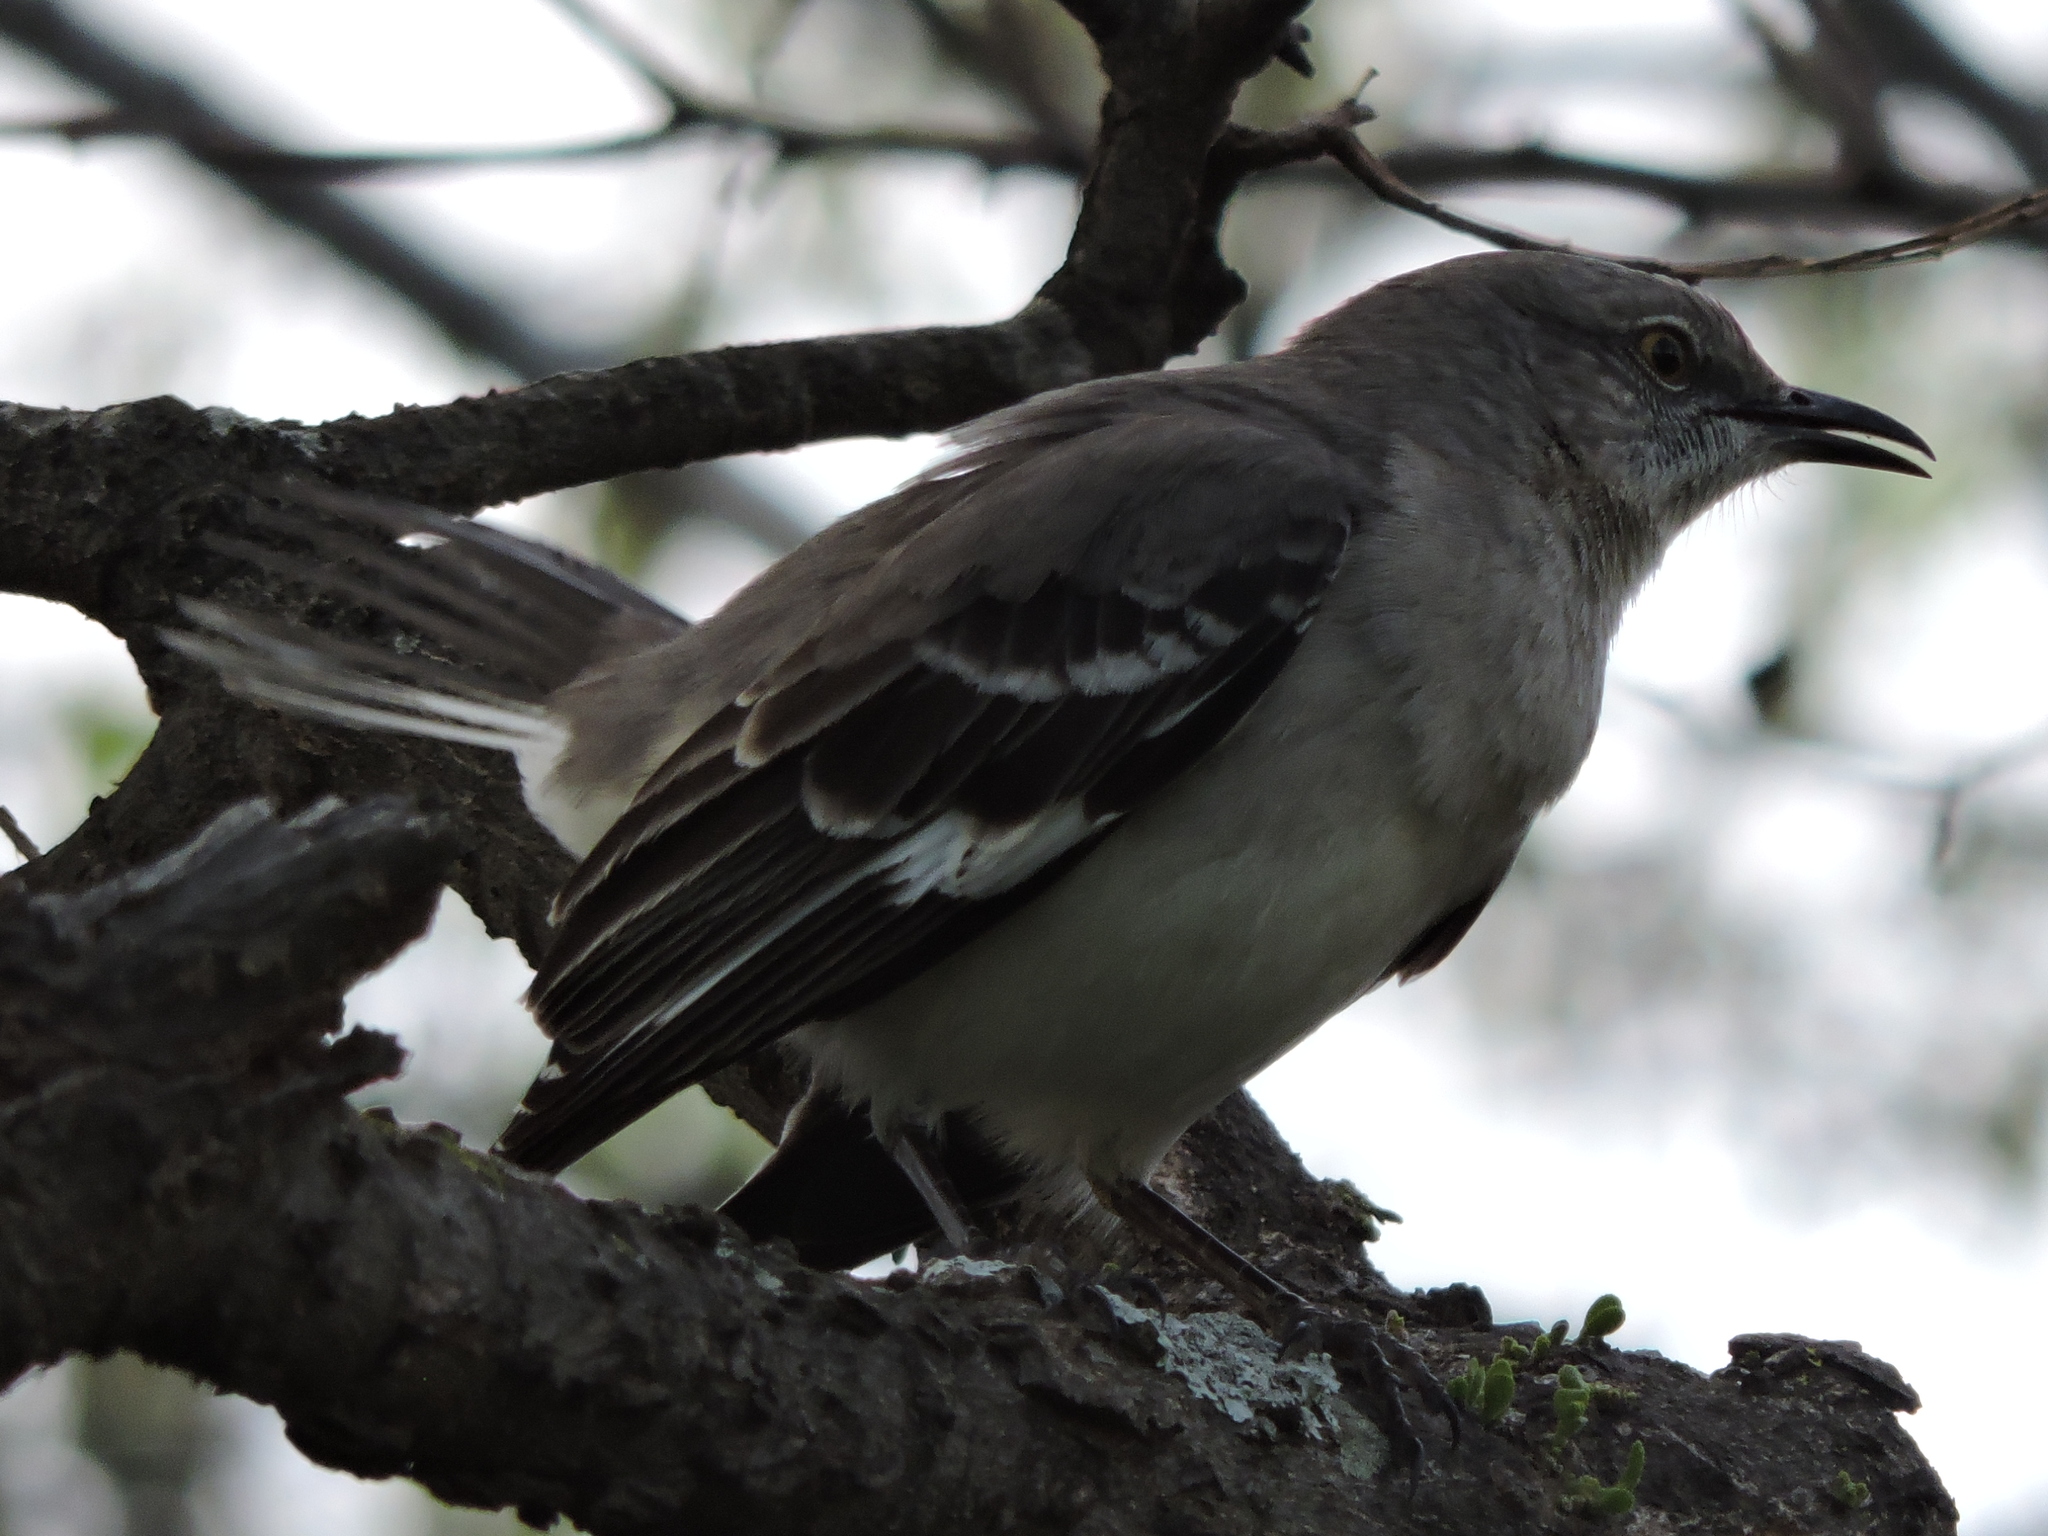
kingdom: Animalia
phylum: Chordata
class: Aves
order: Passeriformes
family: Mimidae
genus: Mimus
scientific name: Mimus polyglottos
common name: Northern mockingbird
